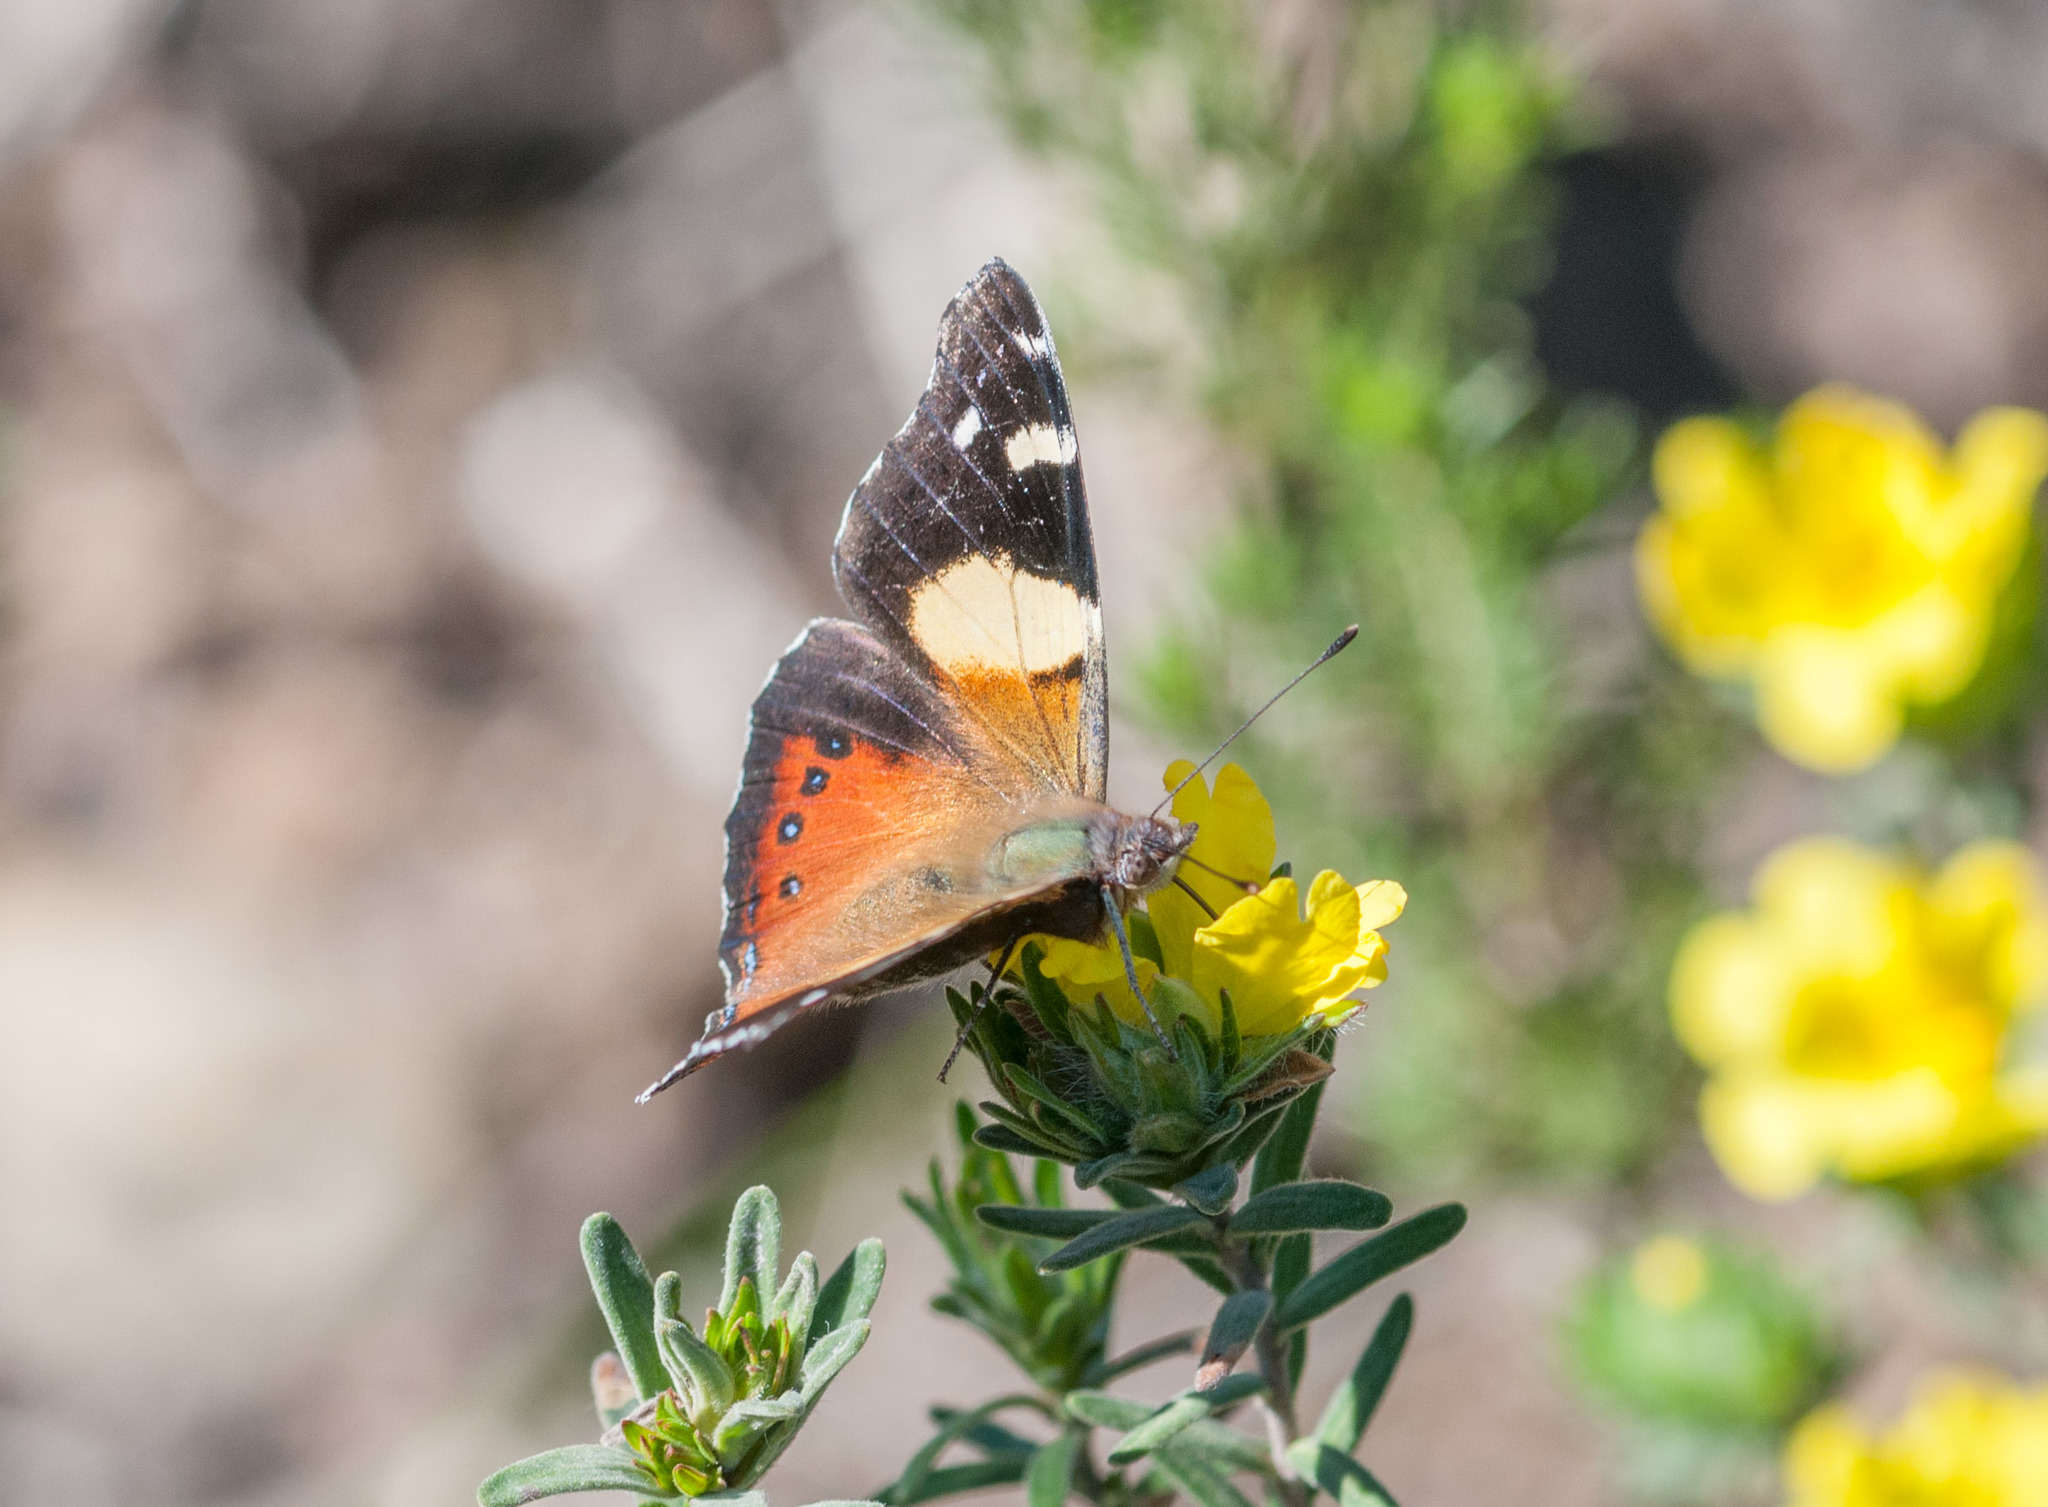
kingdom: Animalia
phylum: Arthropoda
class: Insecta
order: Lepidoptera
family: Nymphalidae
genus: Vanessa
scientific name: Vanessa itea
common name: Yellow admiral
